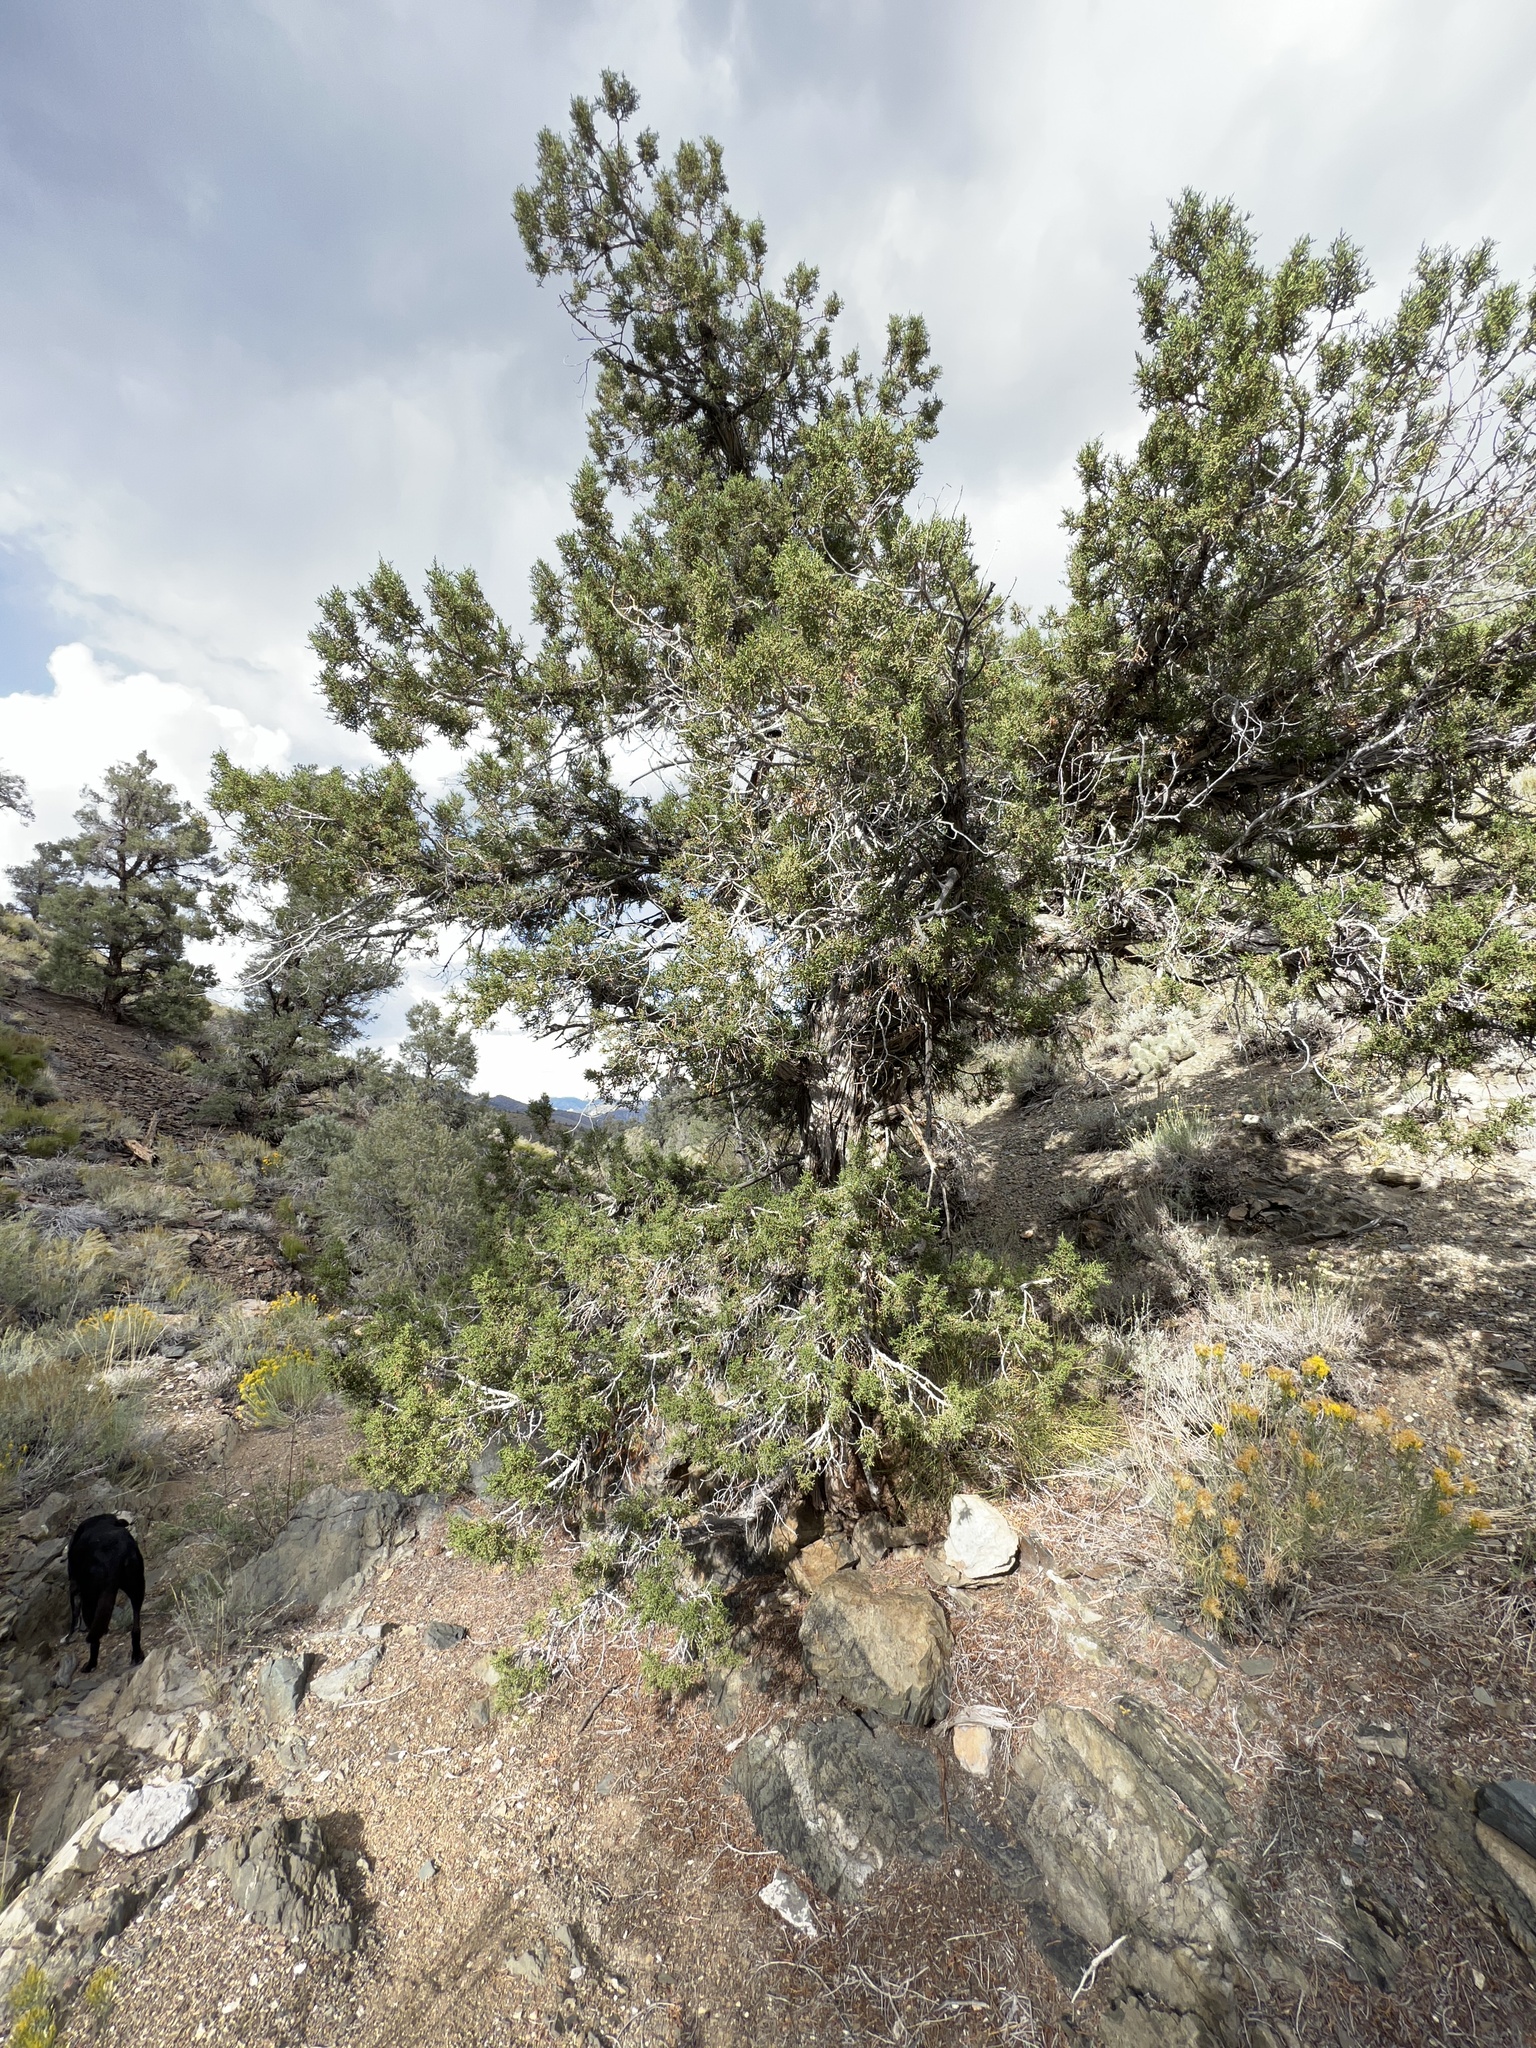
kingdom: Plantae
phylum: Tracheophyta
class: Pinopsida
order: Pinales
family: Cupressaceae
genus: Juniperus
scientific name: Juniperus osteosperma
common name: Utah juniper
